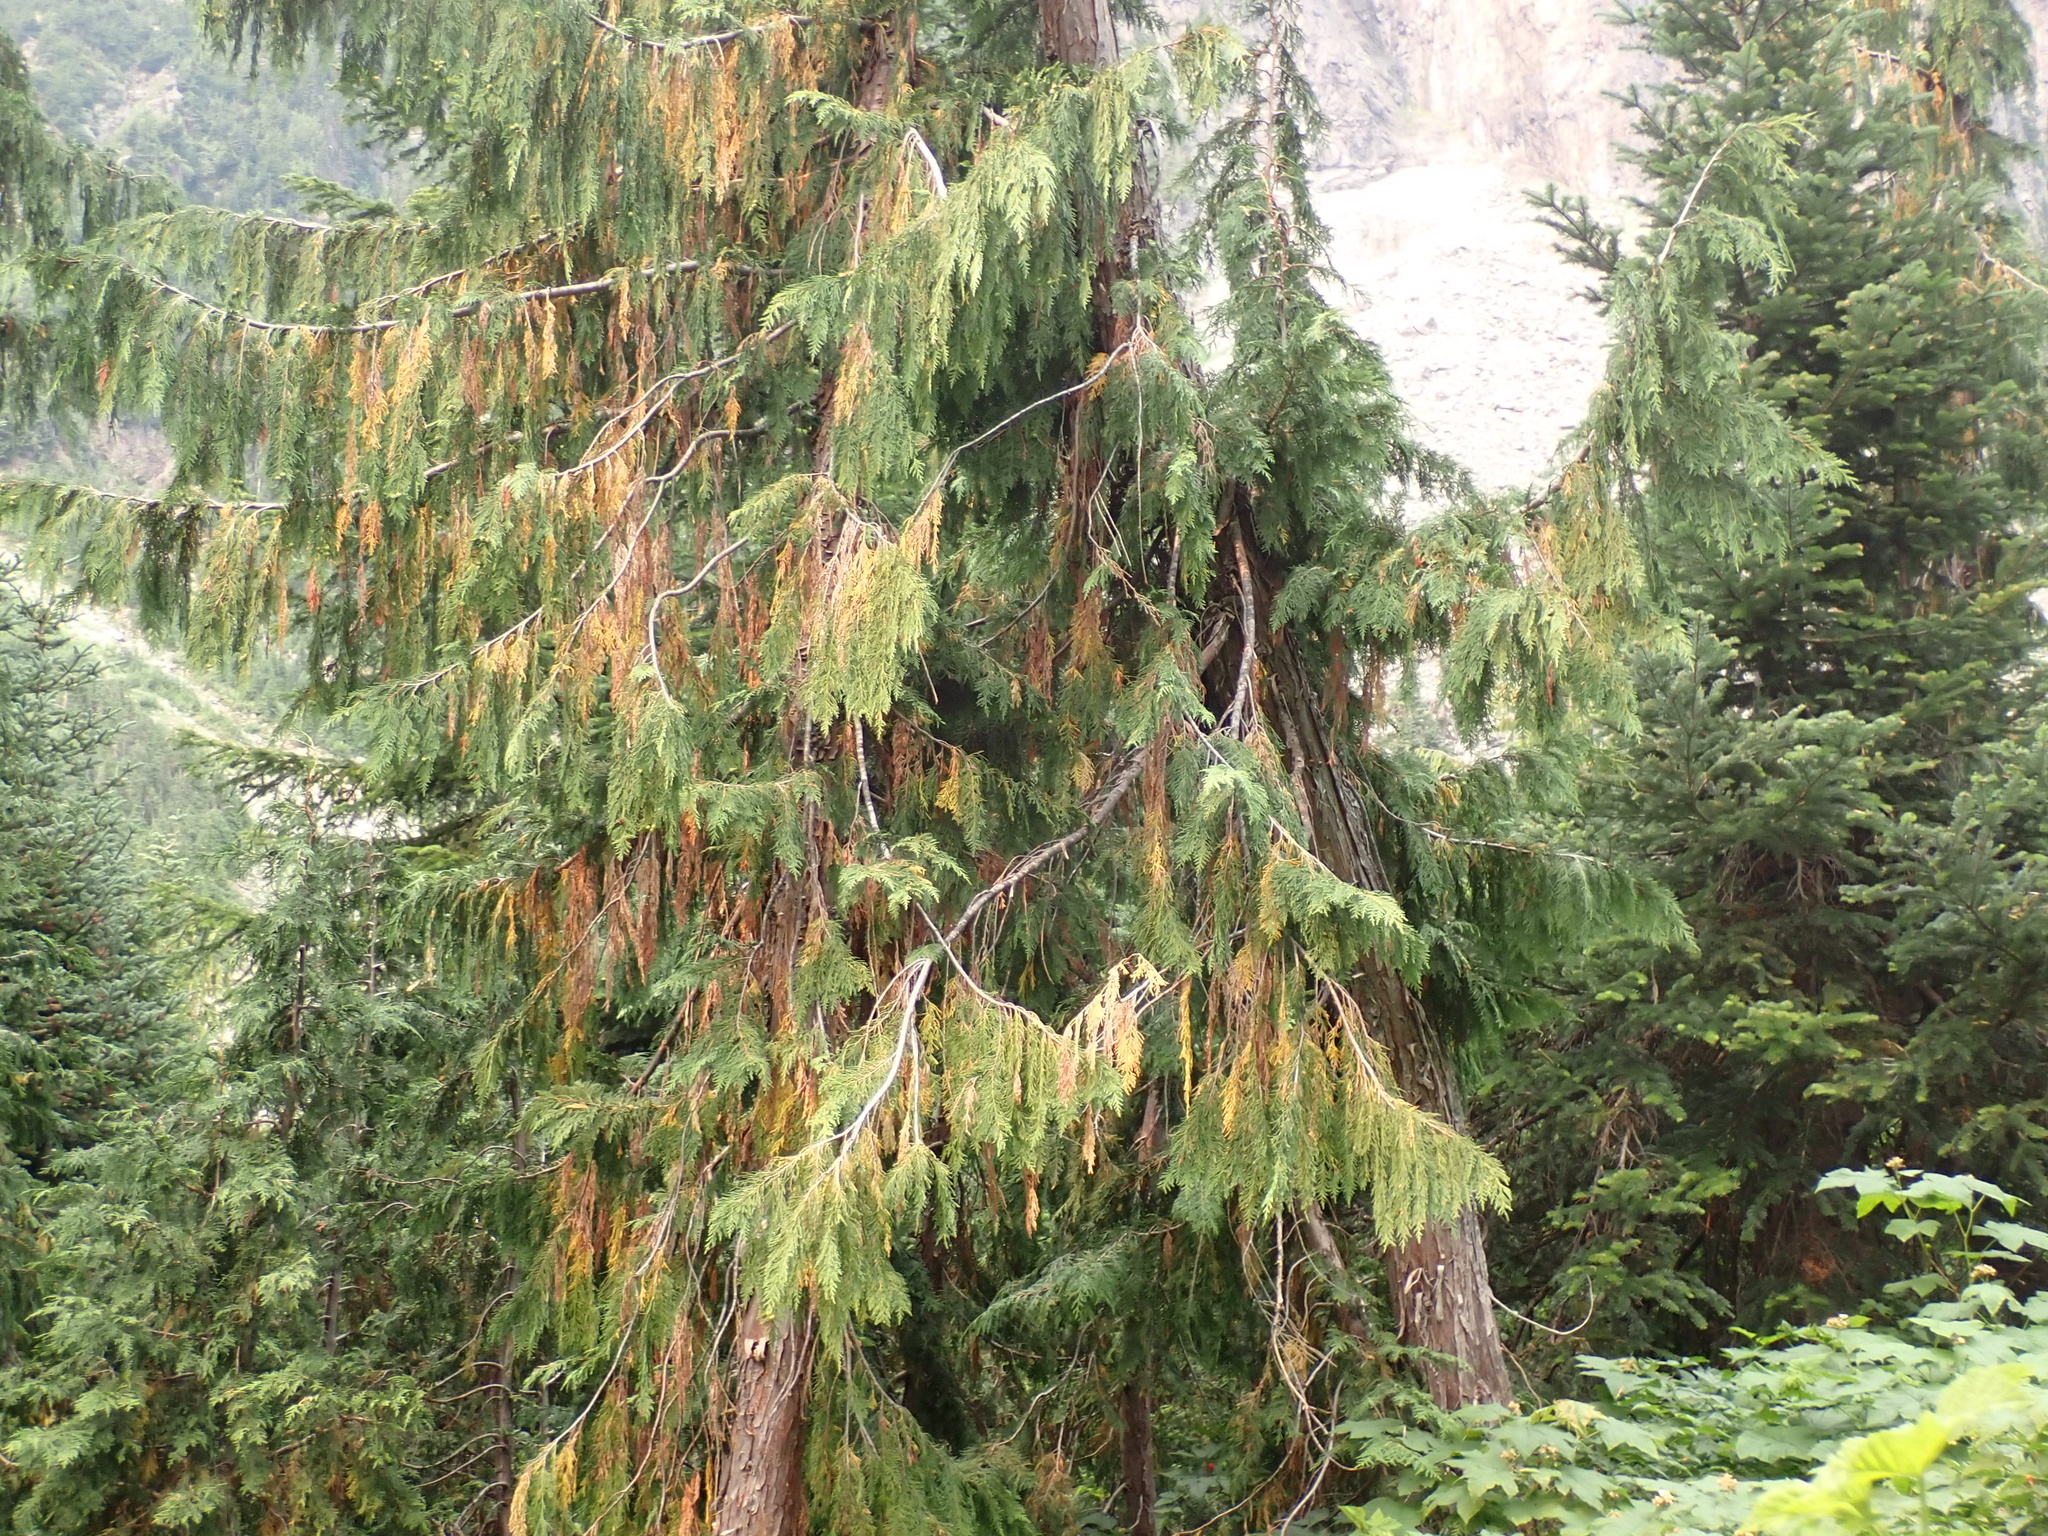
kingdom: Plantae
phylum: Tracheophyta
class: Pinopsida
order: Pinales
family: Cupressaceae
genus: Xanthocyparis
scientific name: Xanthocyparis nootkatensis
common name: Nootka cypress
